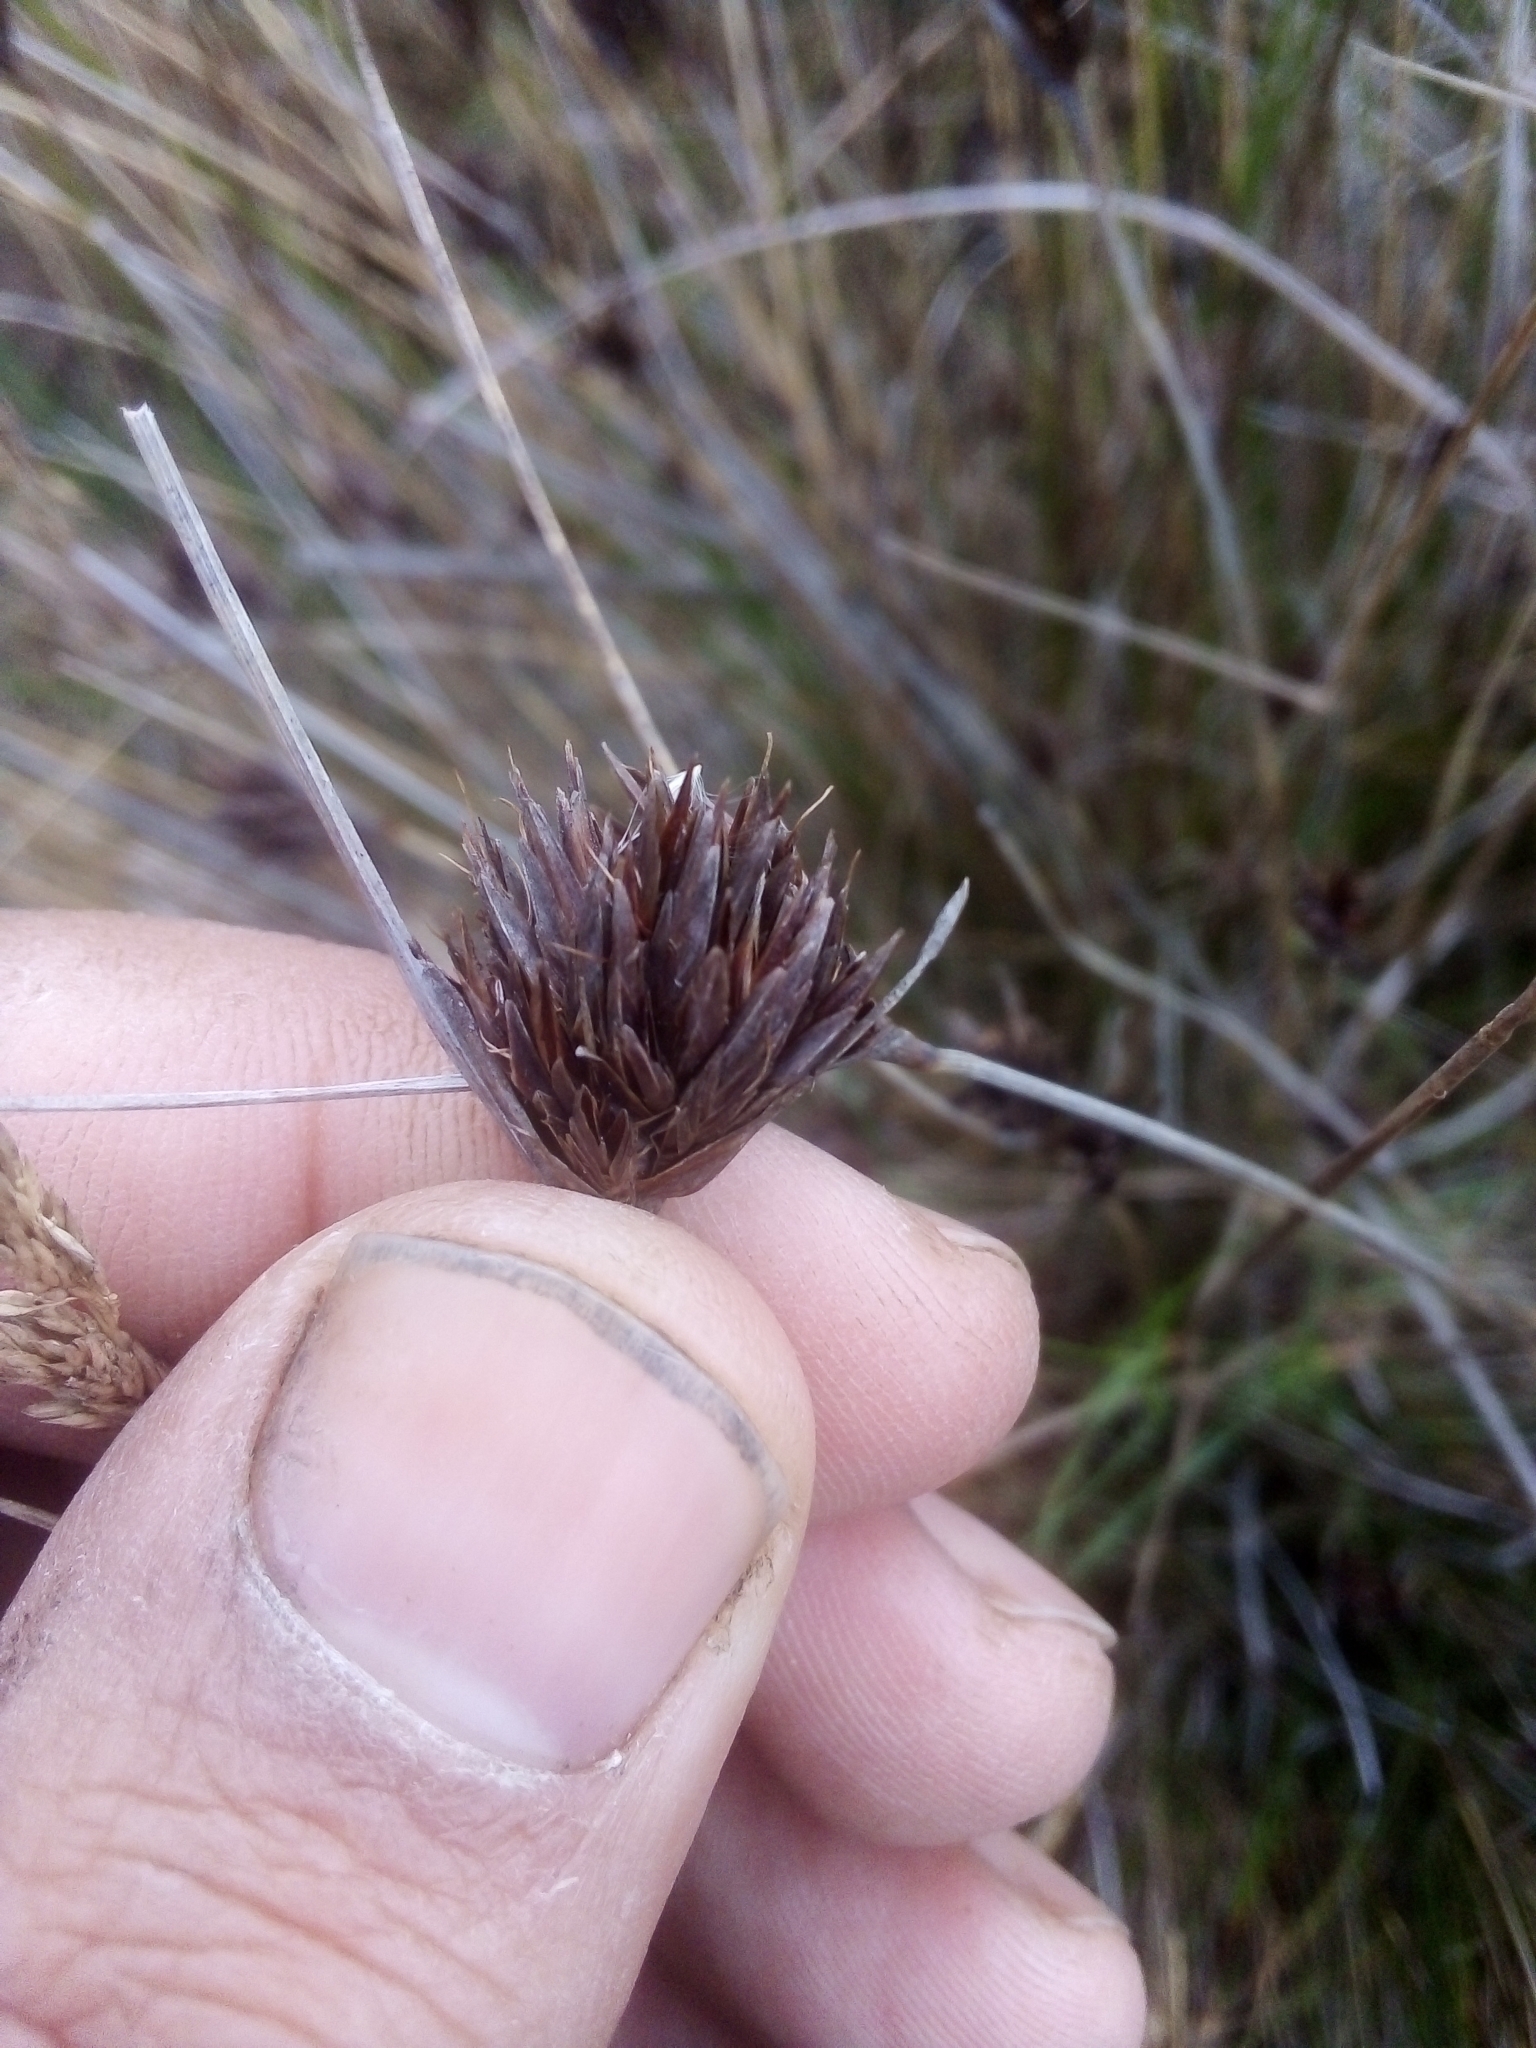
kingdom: Plantae
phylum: Tracheophyta
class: Liliopsida
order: Poales
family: Cyperaceae
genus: Schoenus
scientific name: Schoenus nigricans
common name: Black bog-rush
